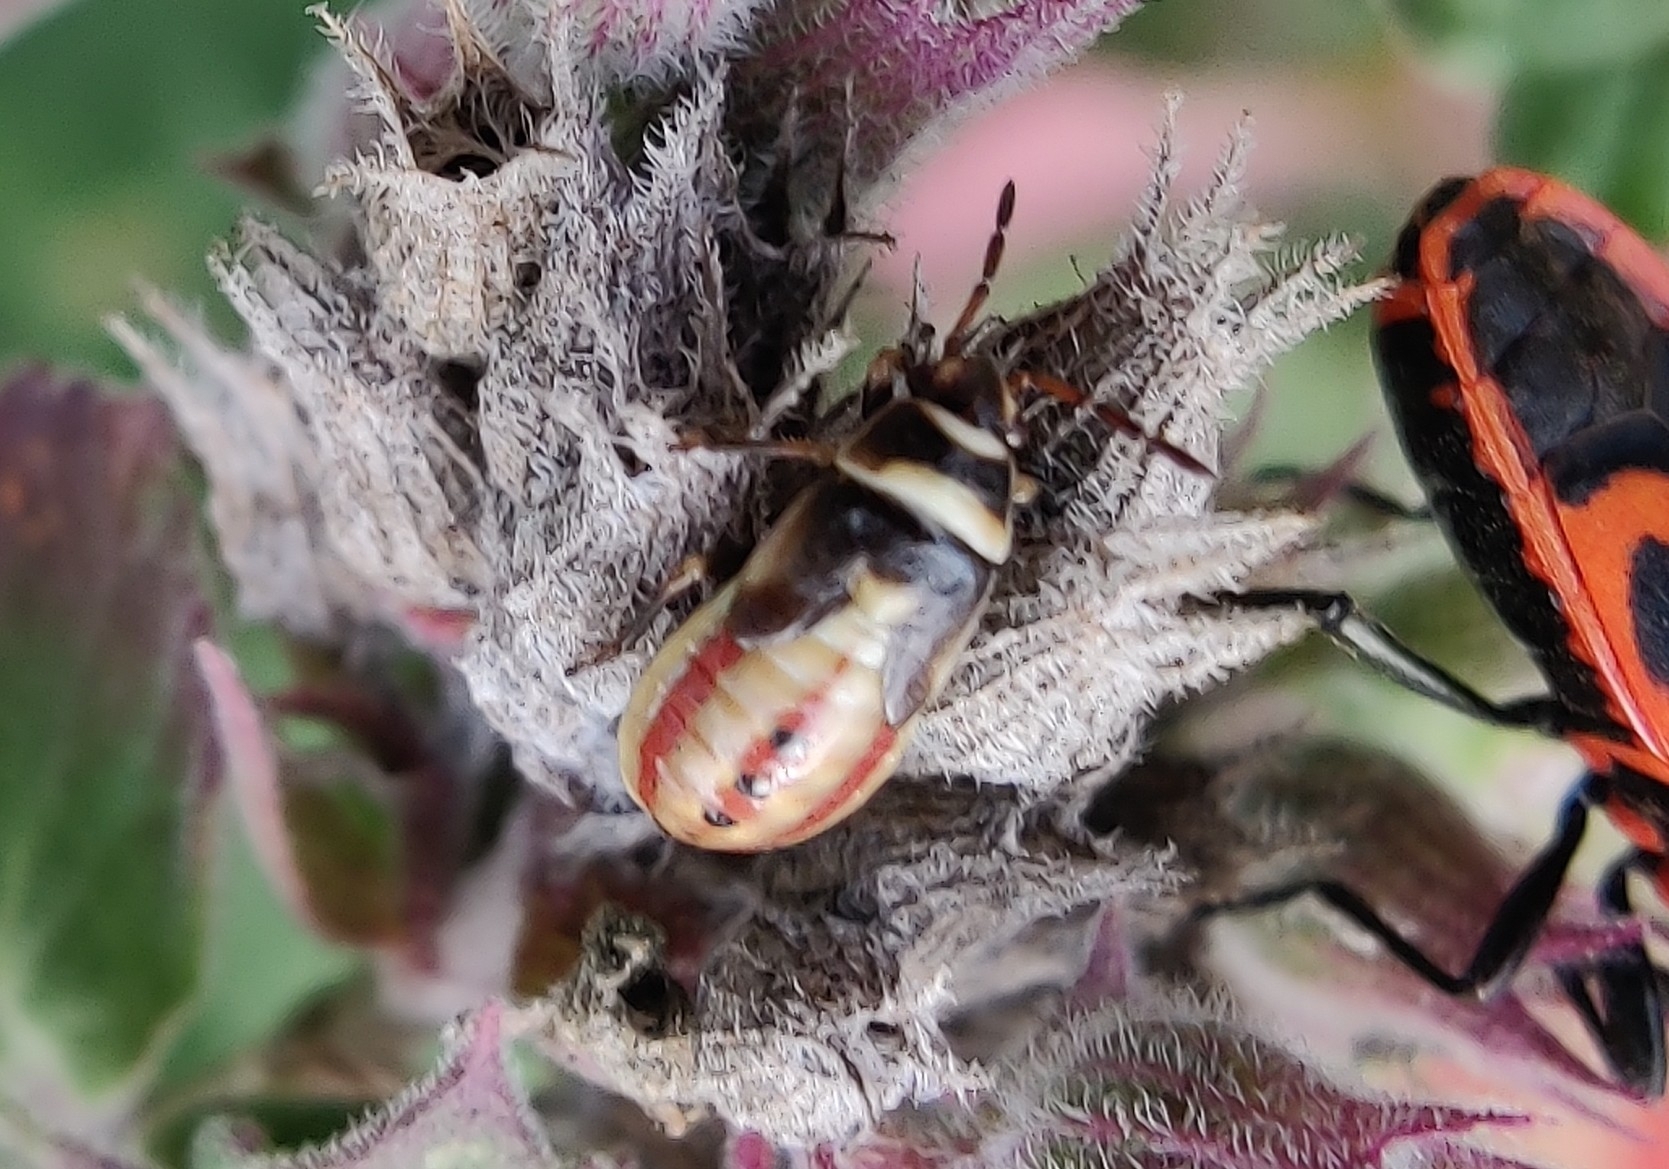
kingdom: Animalia
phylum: Arthropoda
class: Insecta
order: Hemiptera
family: Heterogastridae
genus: Heterogaster
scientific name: Heterogaster cathariae
